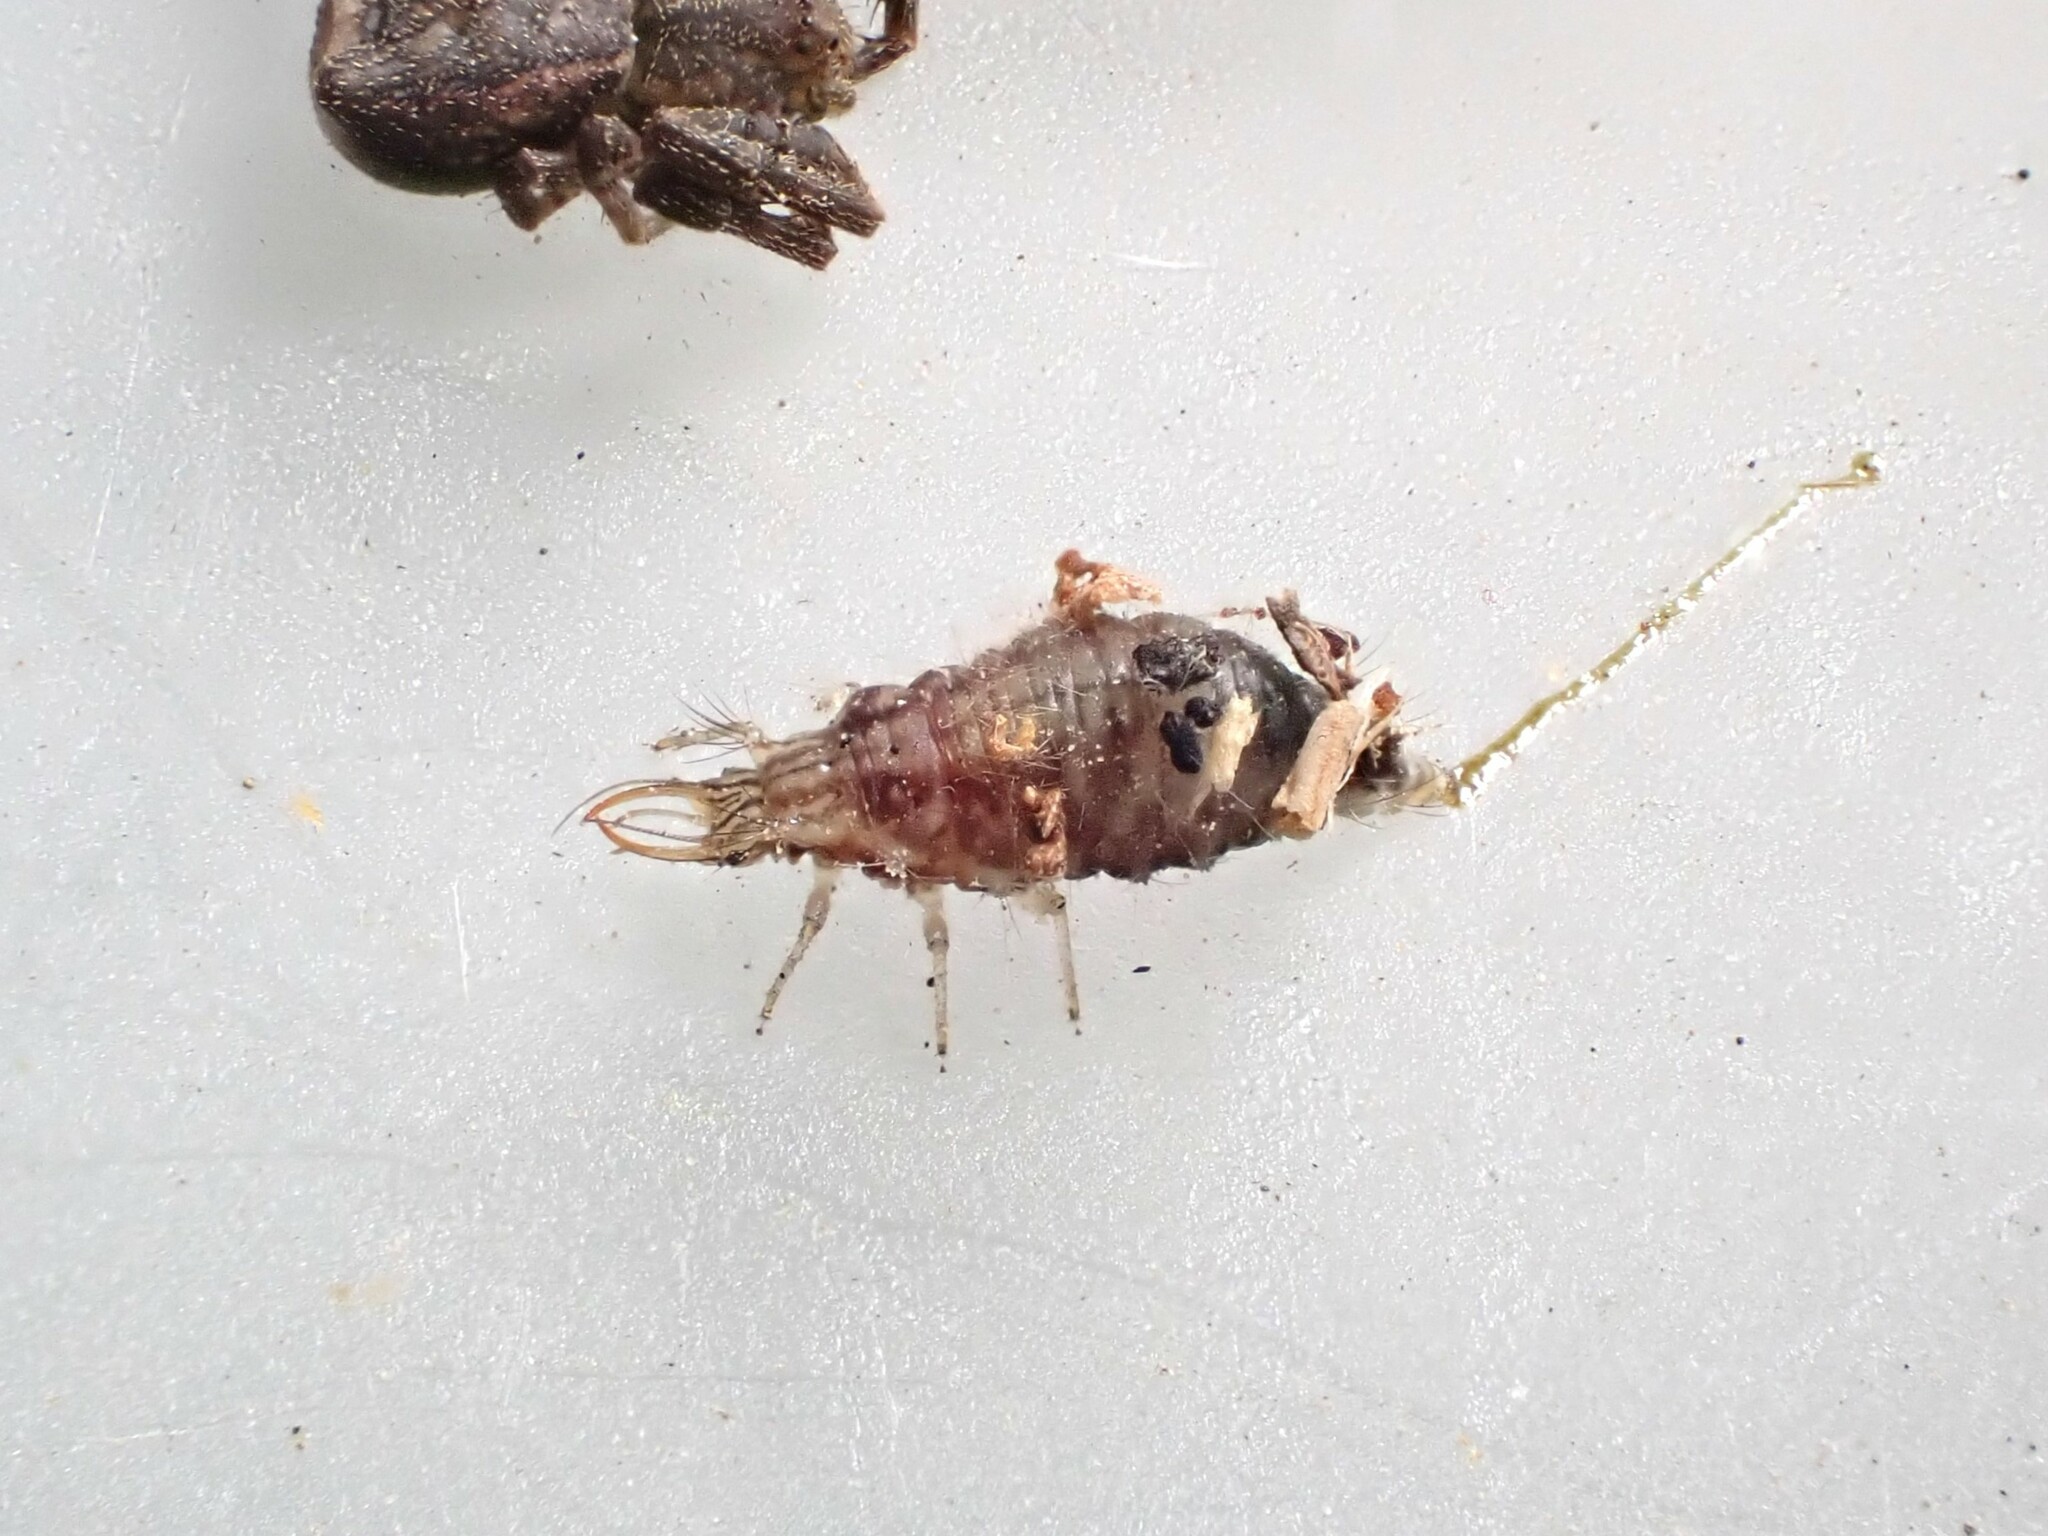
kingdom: Animalia
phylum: Arthropoda
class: Insecta
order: Neuroptera
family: Chrysopidae
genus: Mallada
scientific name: Mallada basalis
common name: Green lacewing
